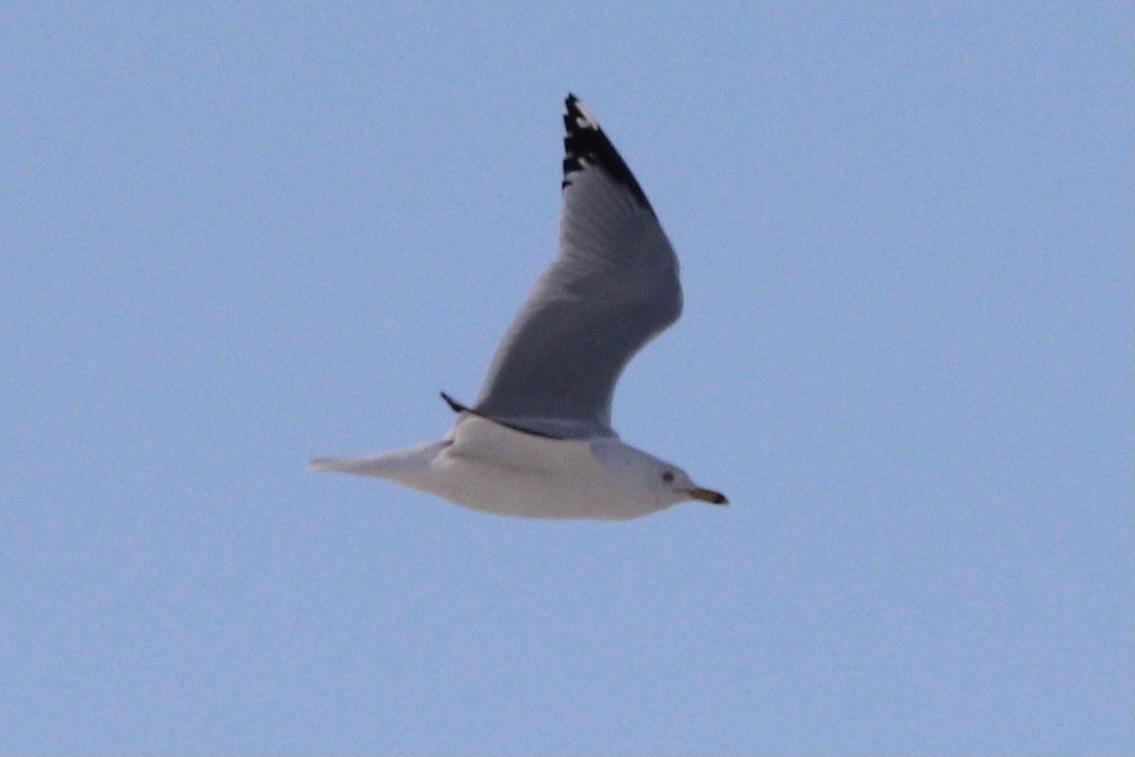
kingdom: Animalia
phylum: Chordata
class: Aves
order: Charadriiformes
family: Laridae
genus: Larus
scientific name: Larus delawarensis
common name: Ring-billed gull
